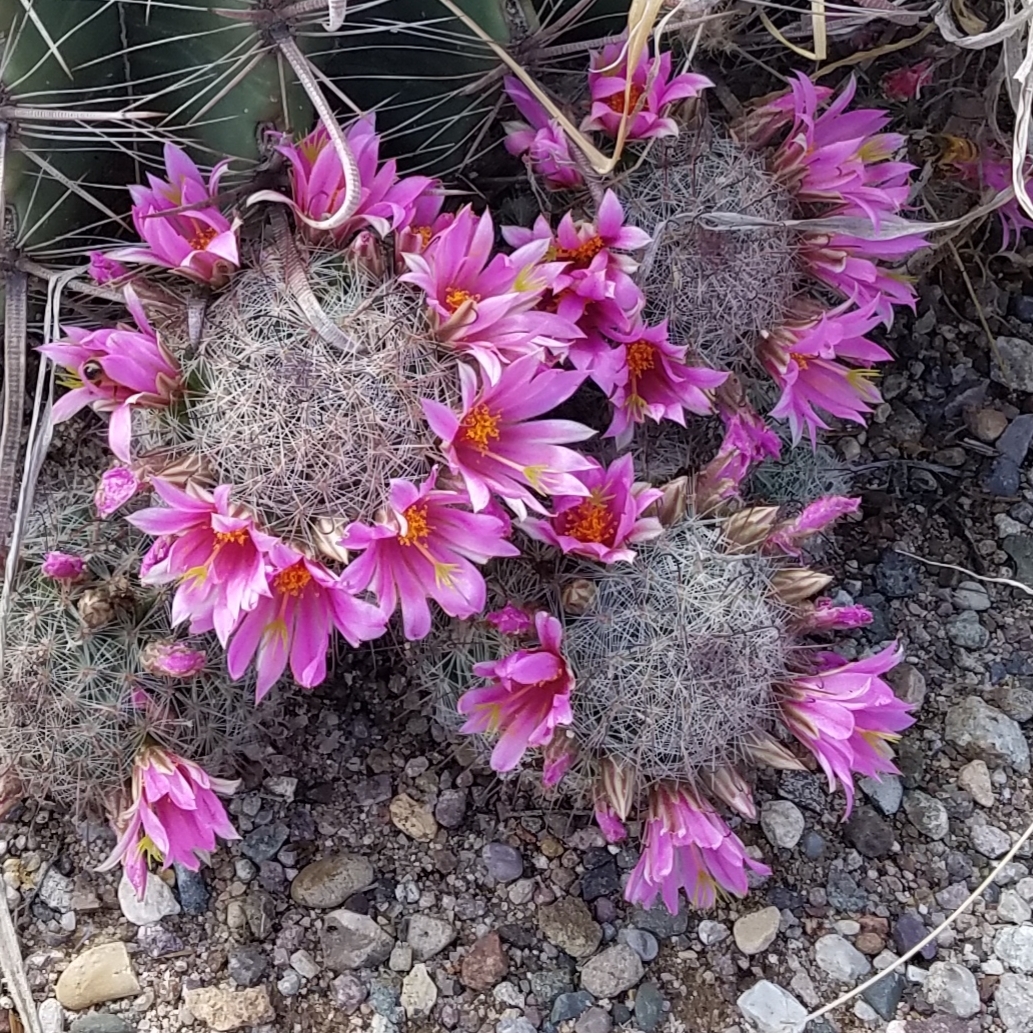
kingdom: Plantae
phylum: Tracheophyta
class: Magnoliopsida
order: Caryophyllales
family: Cactaceae
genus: Cochemiea
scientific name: Cochemiea grahamii
